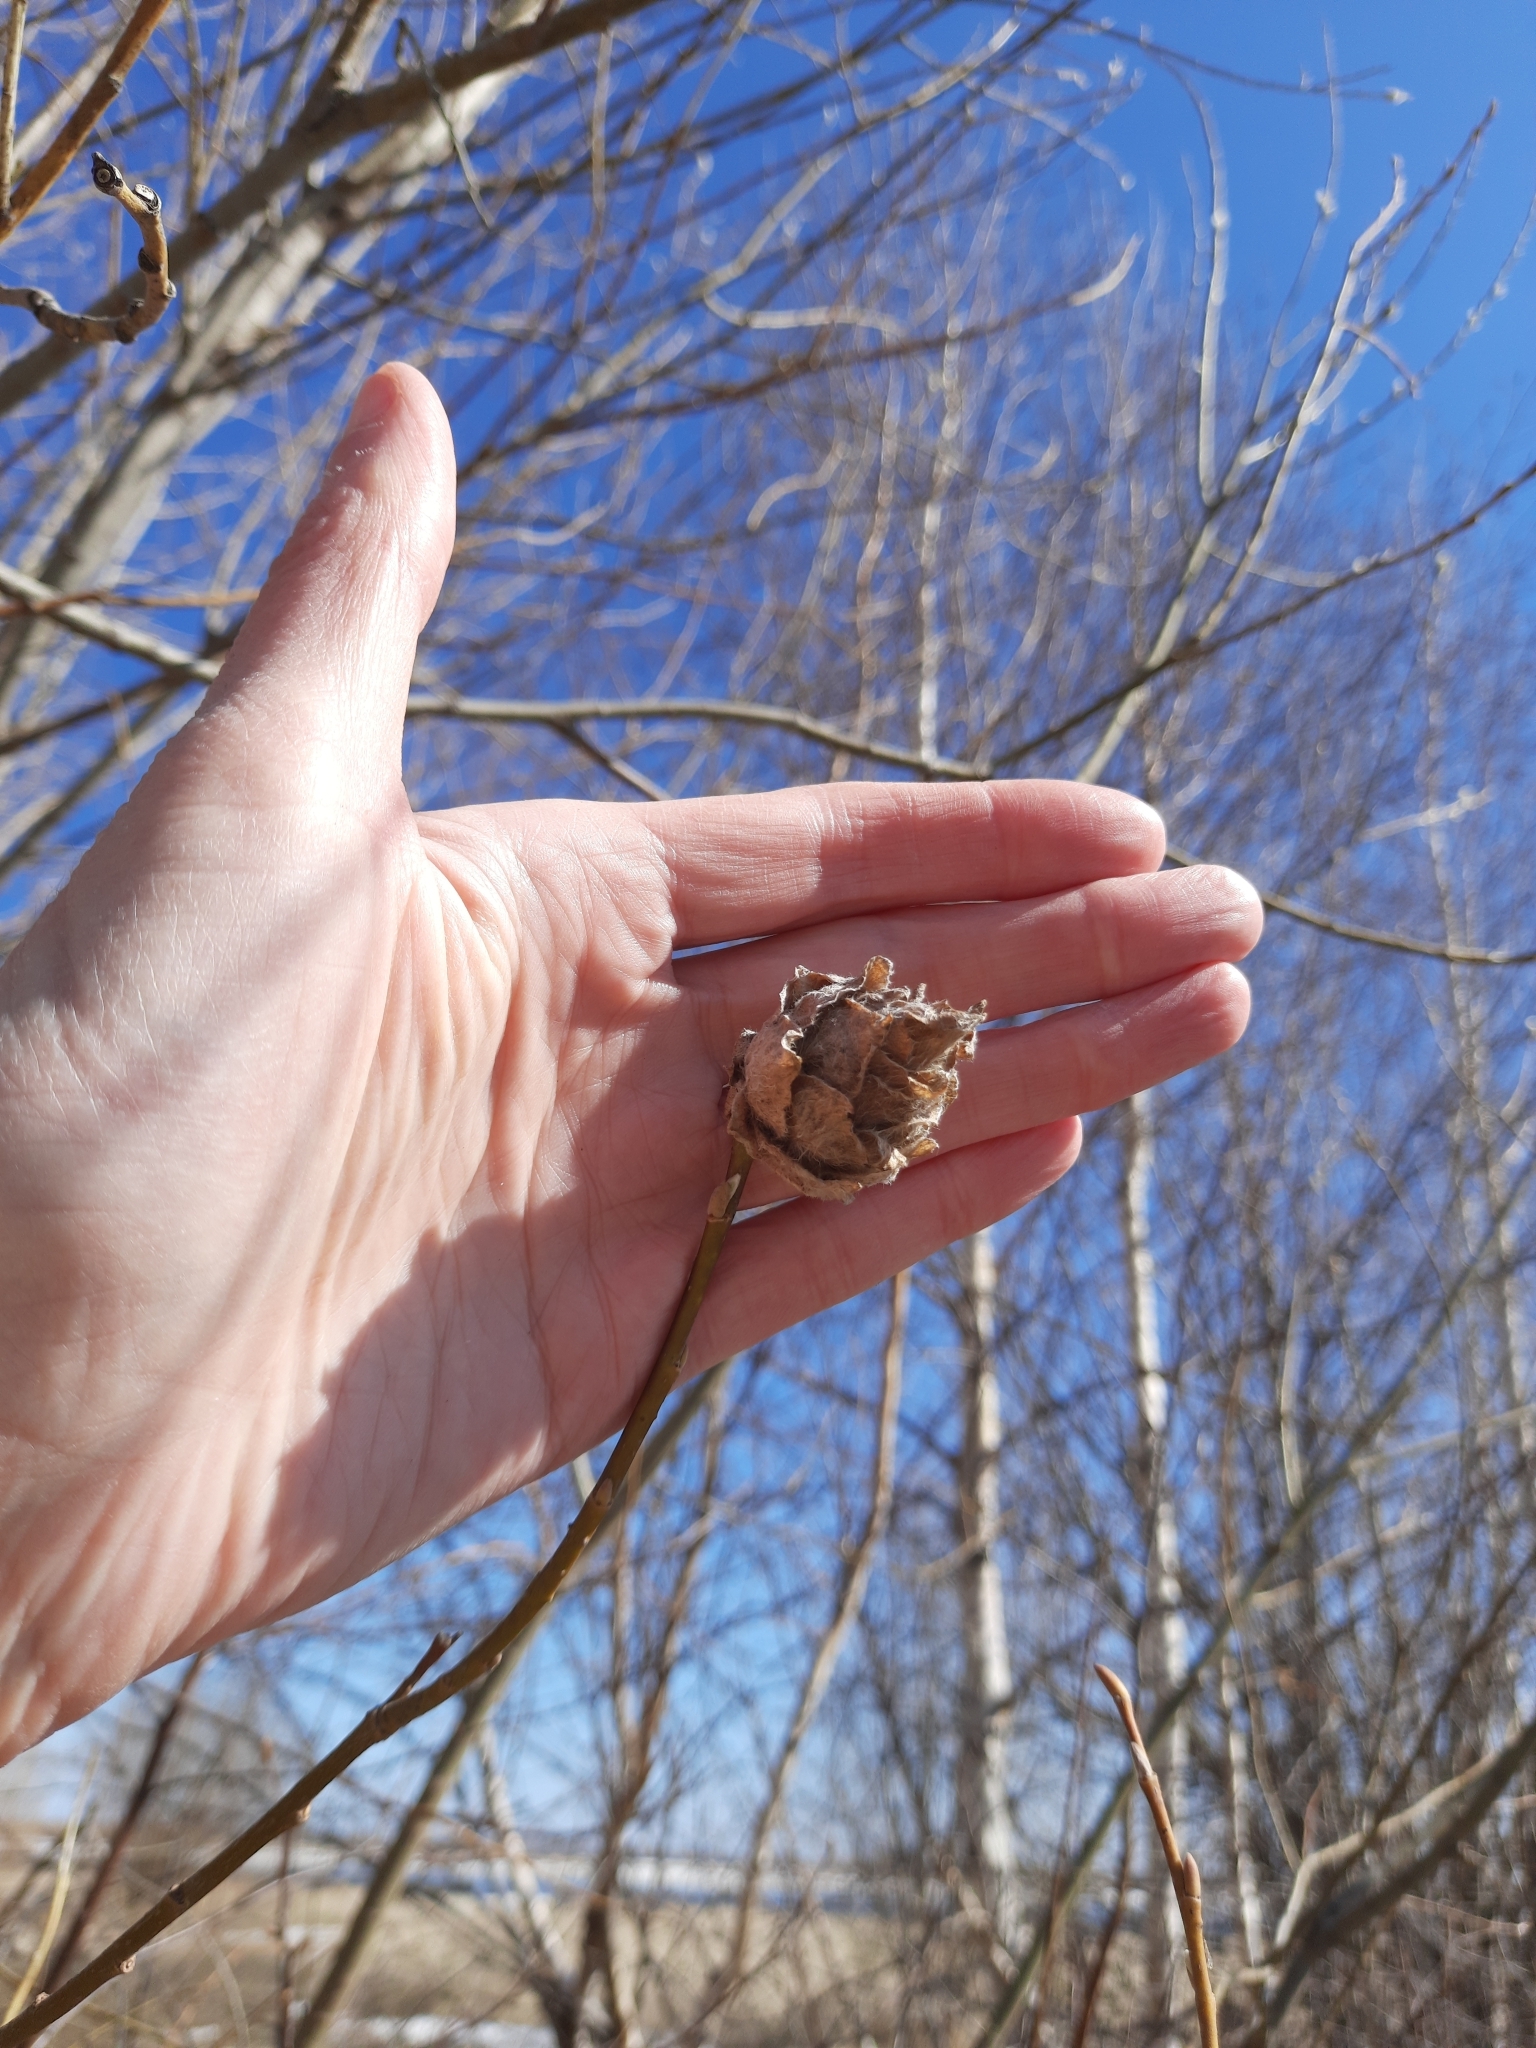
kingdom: Animalia
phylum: Arthropoda
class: Insecta
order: Diptera
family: Cecidomyiidae
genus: Rabdophaga
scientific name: Rabdophaga rosaria
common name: Willow rose gall midge
